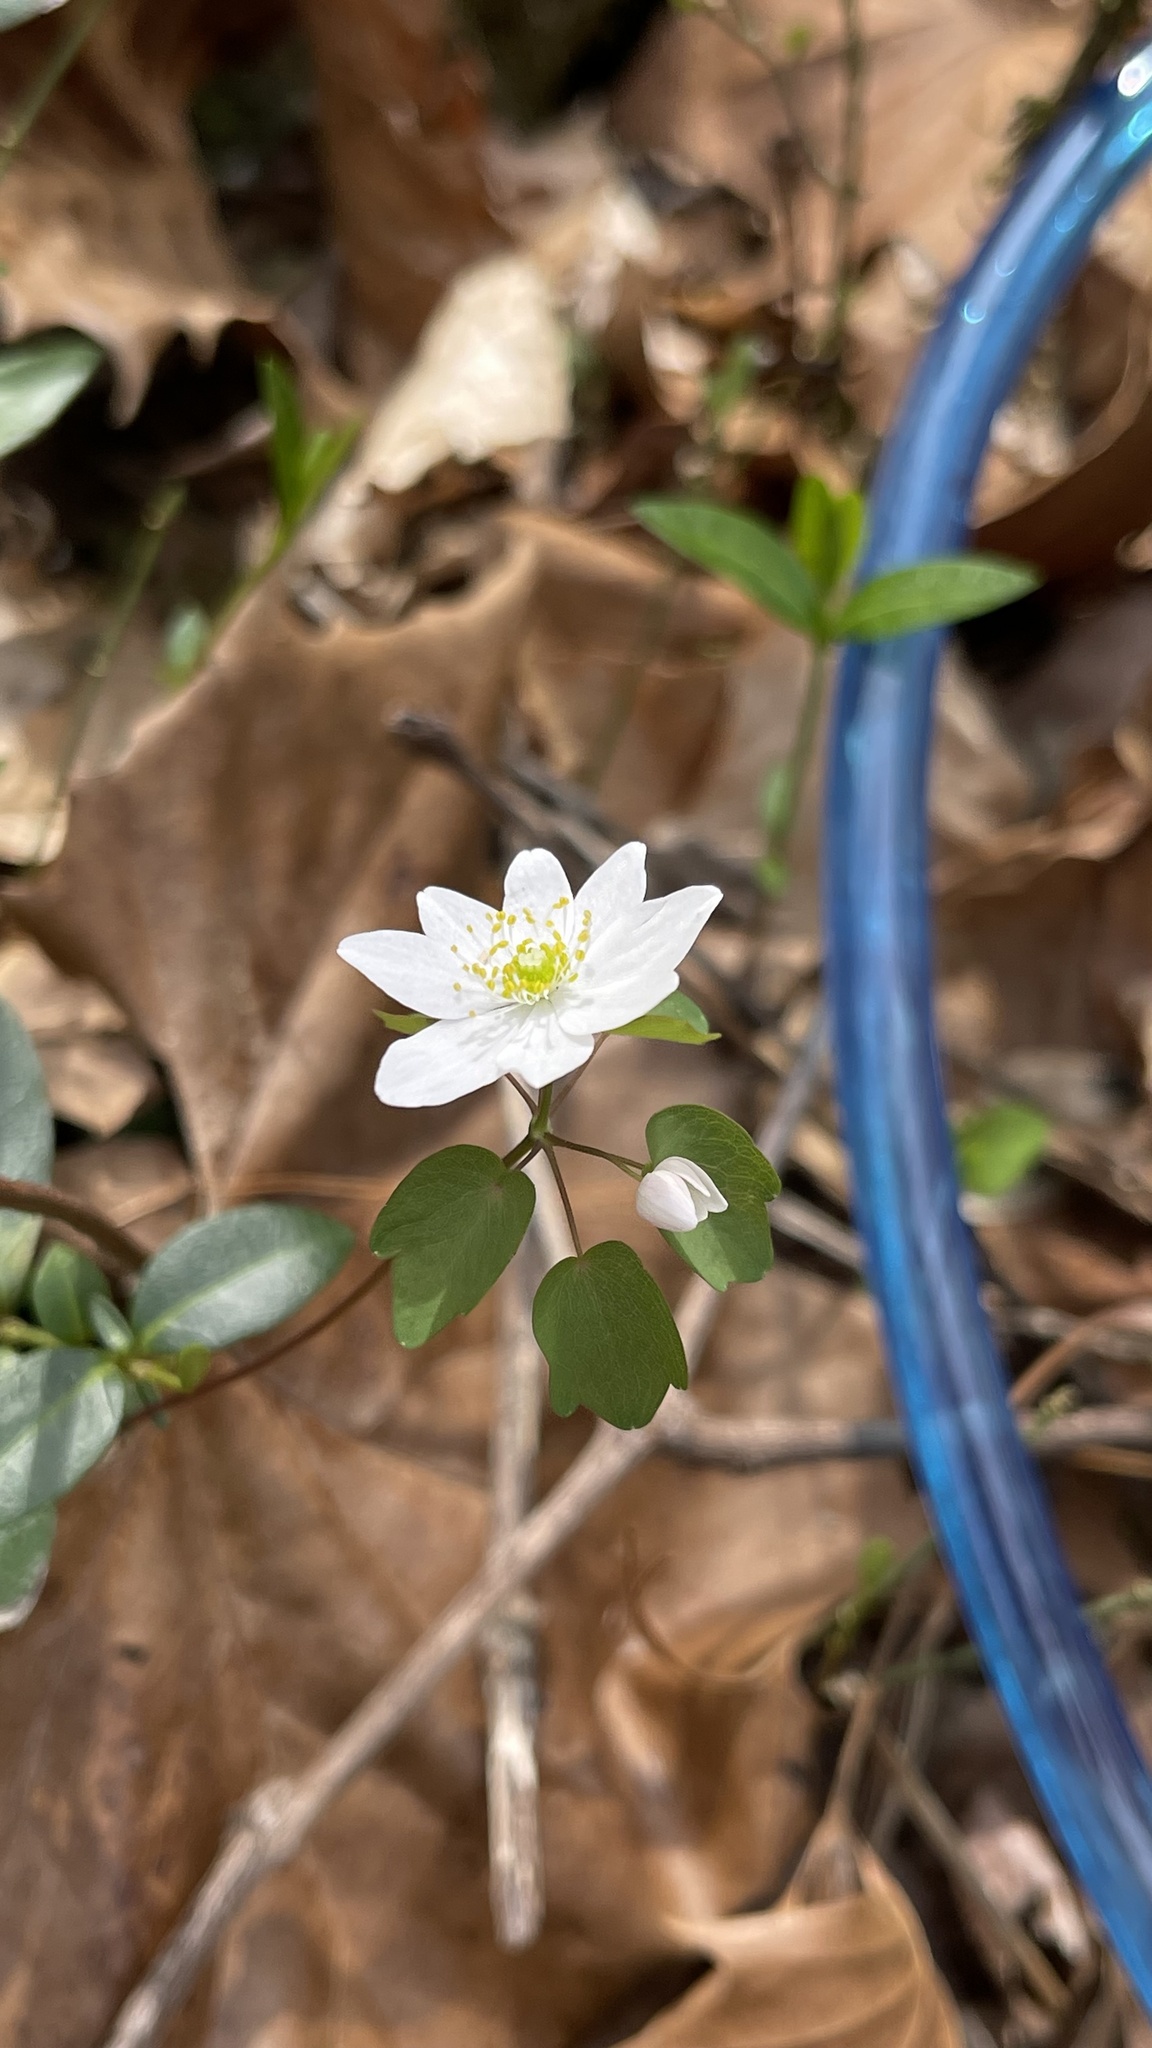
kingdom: Plantae
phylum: Tracheophyta
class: Magnoliopsida
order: Ranunculales
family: Ranunculaceae
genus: Thalictrum
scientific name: Thalictrum thalictroides
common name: Rue-anemone
